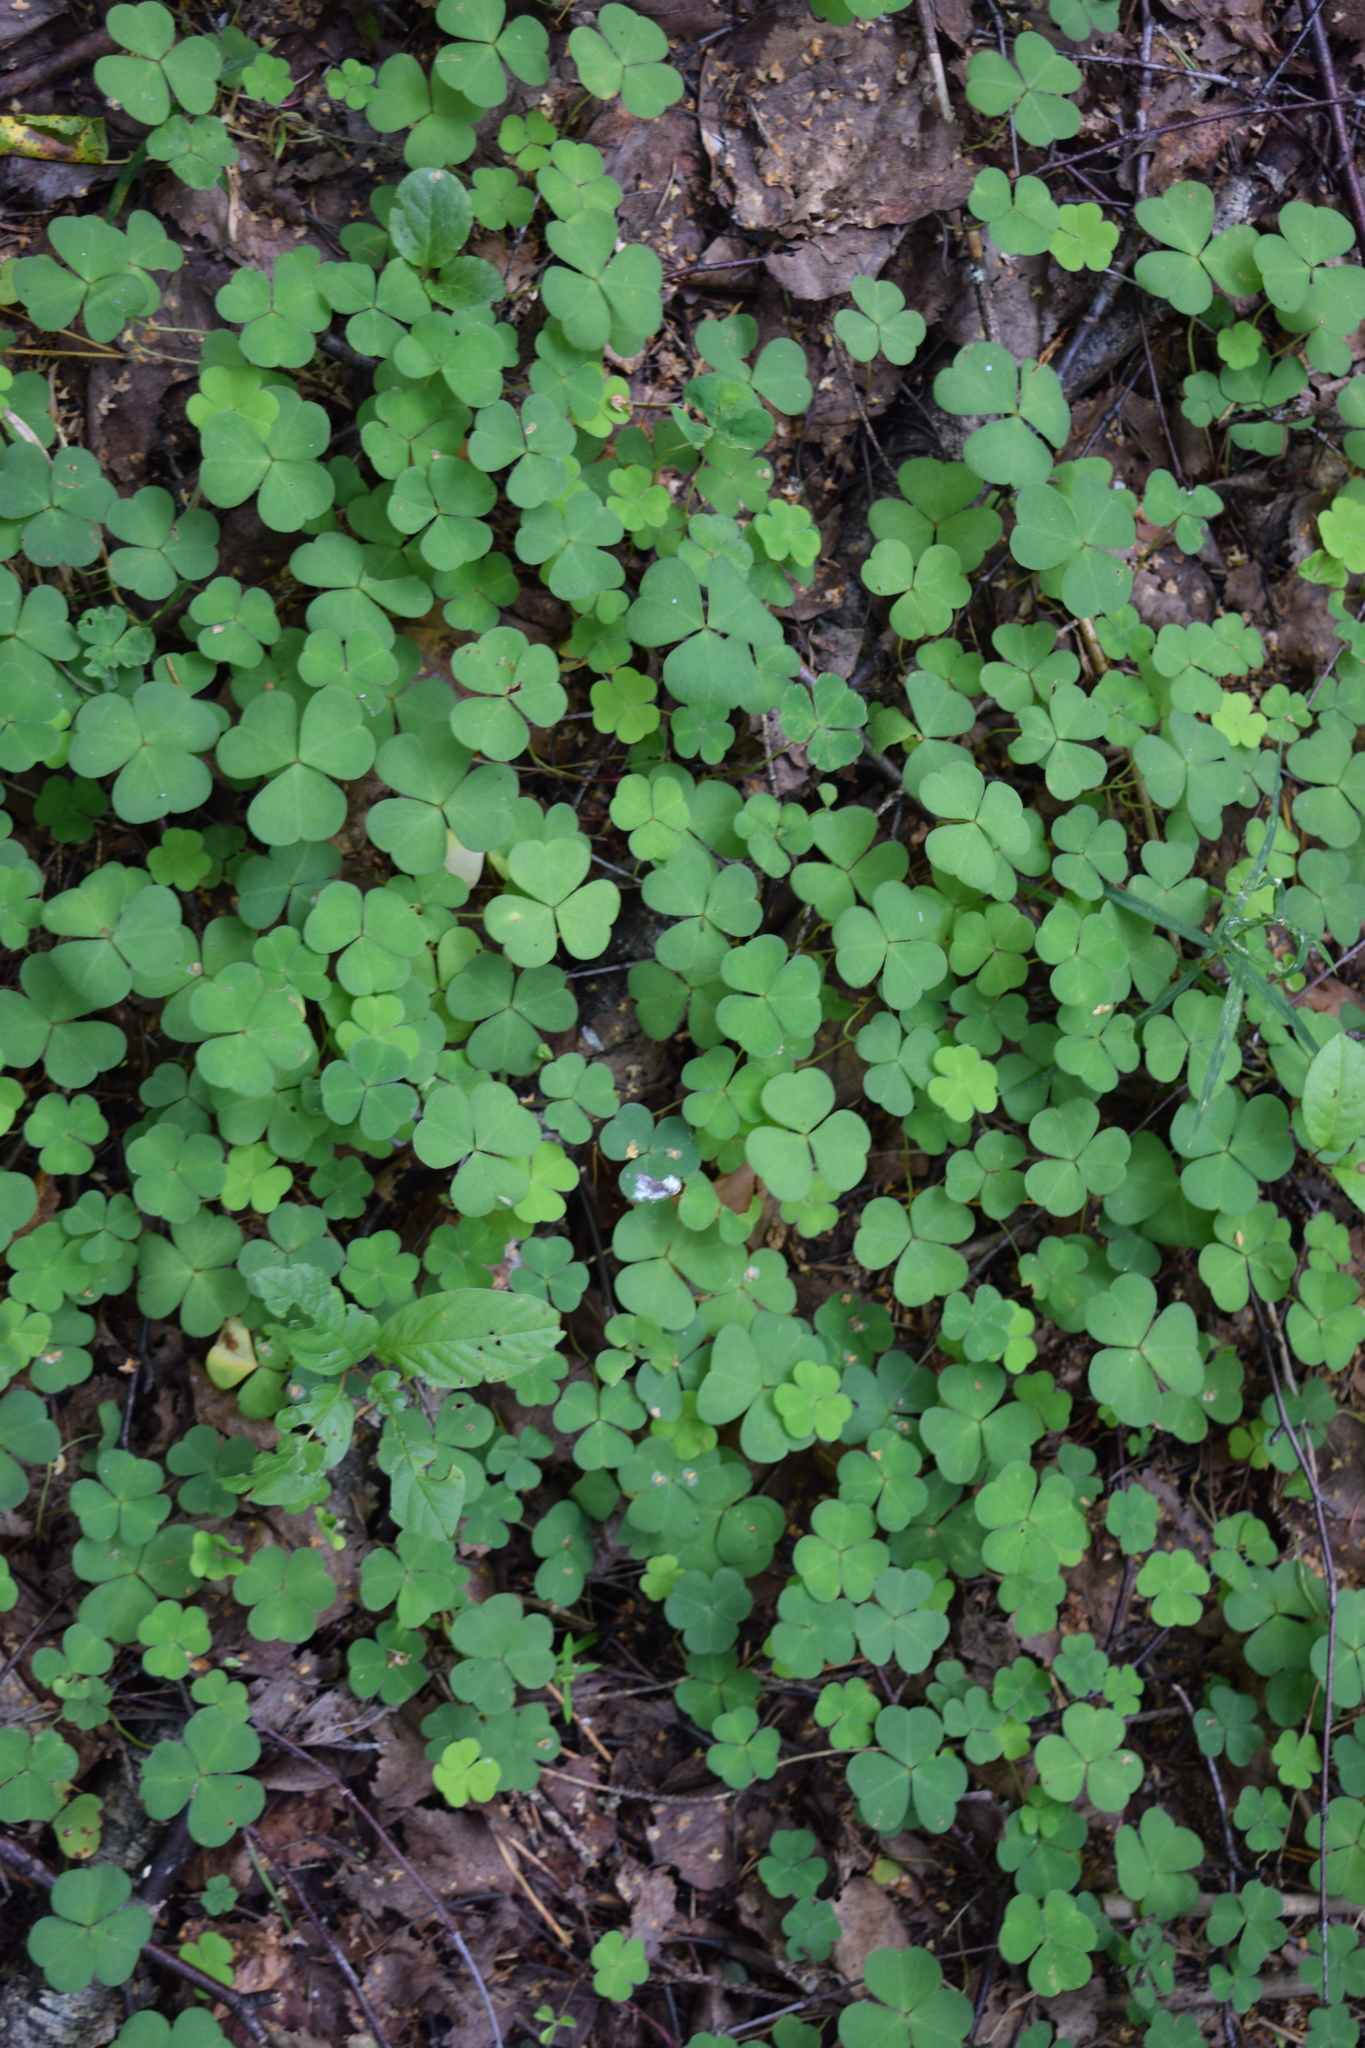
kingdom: Plantae
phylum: Tracheophyta
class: Magnoliopsida
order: Oxalidales
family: Oxalidaceae
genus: Oxalis
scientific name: Oxalis acetosella
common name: Wood-sorrel
